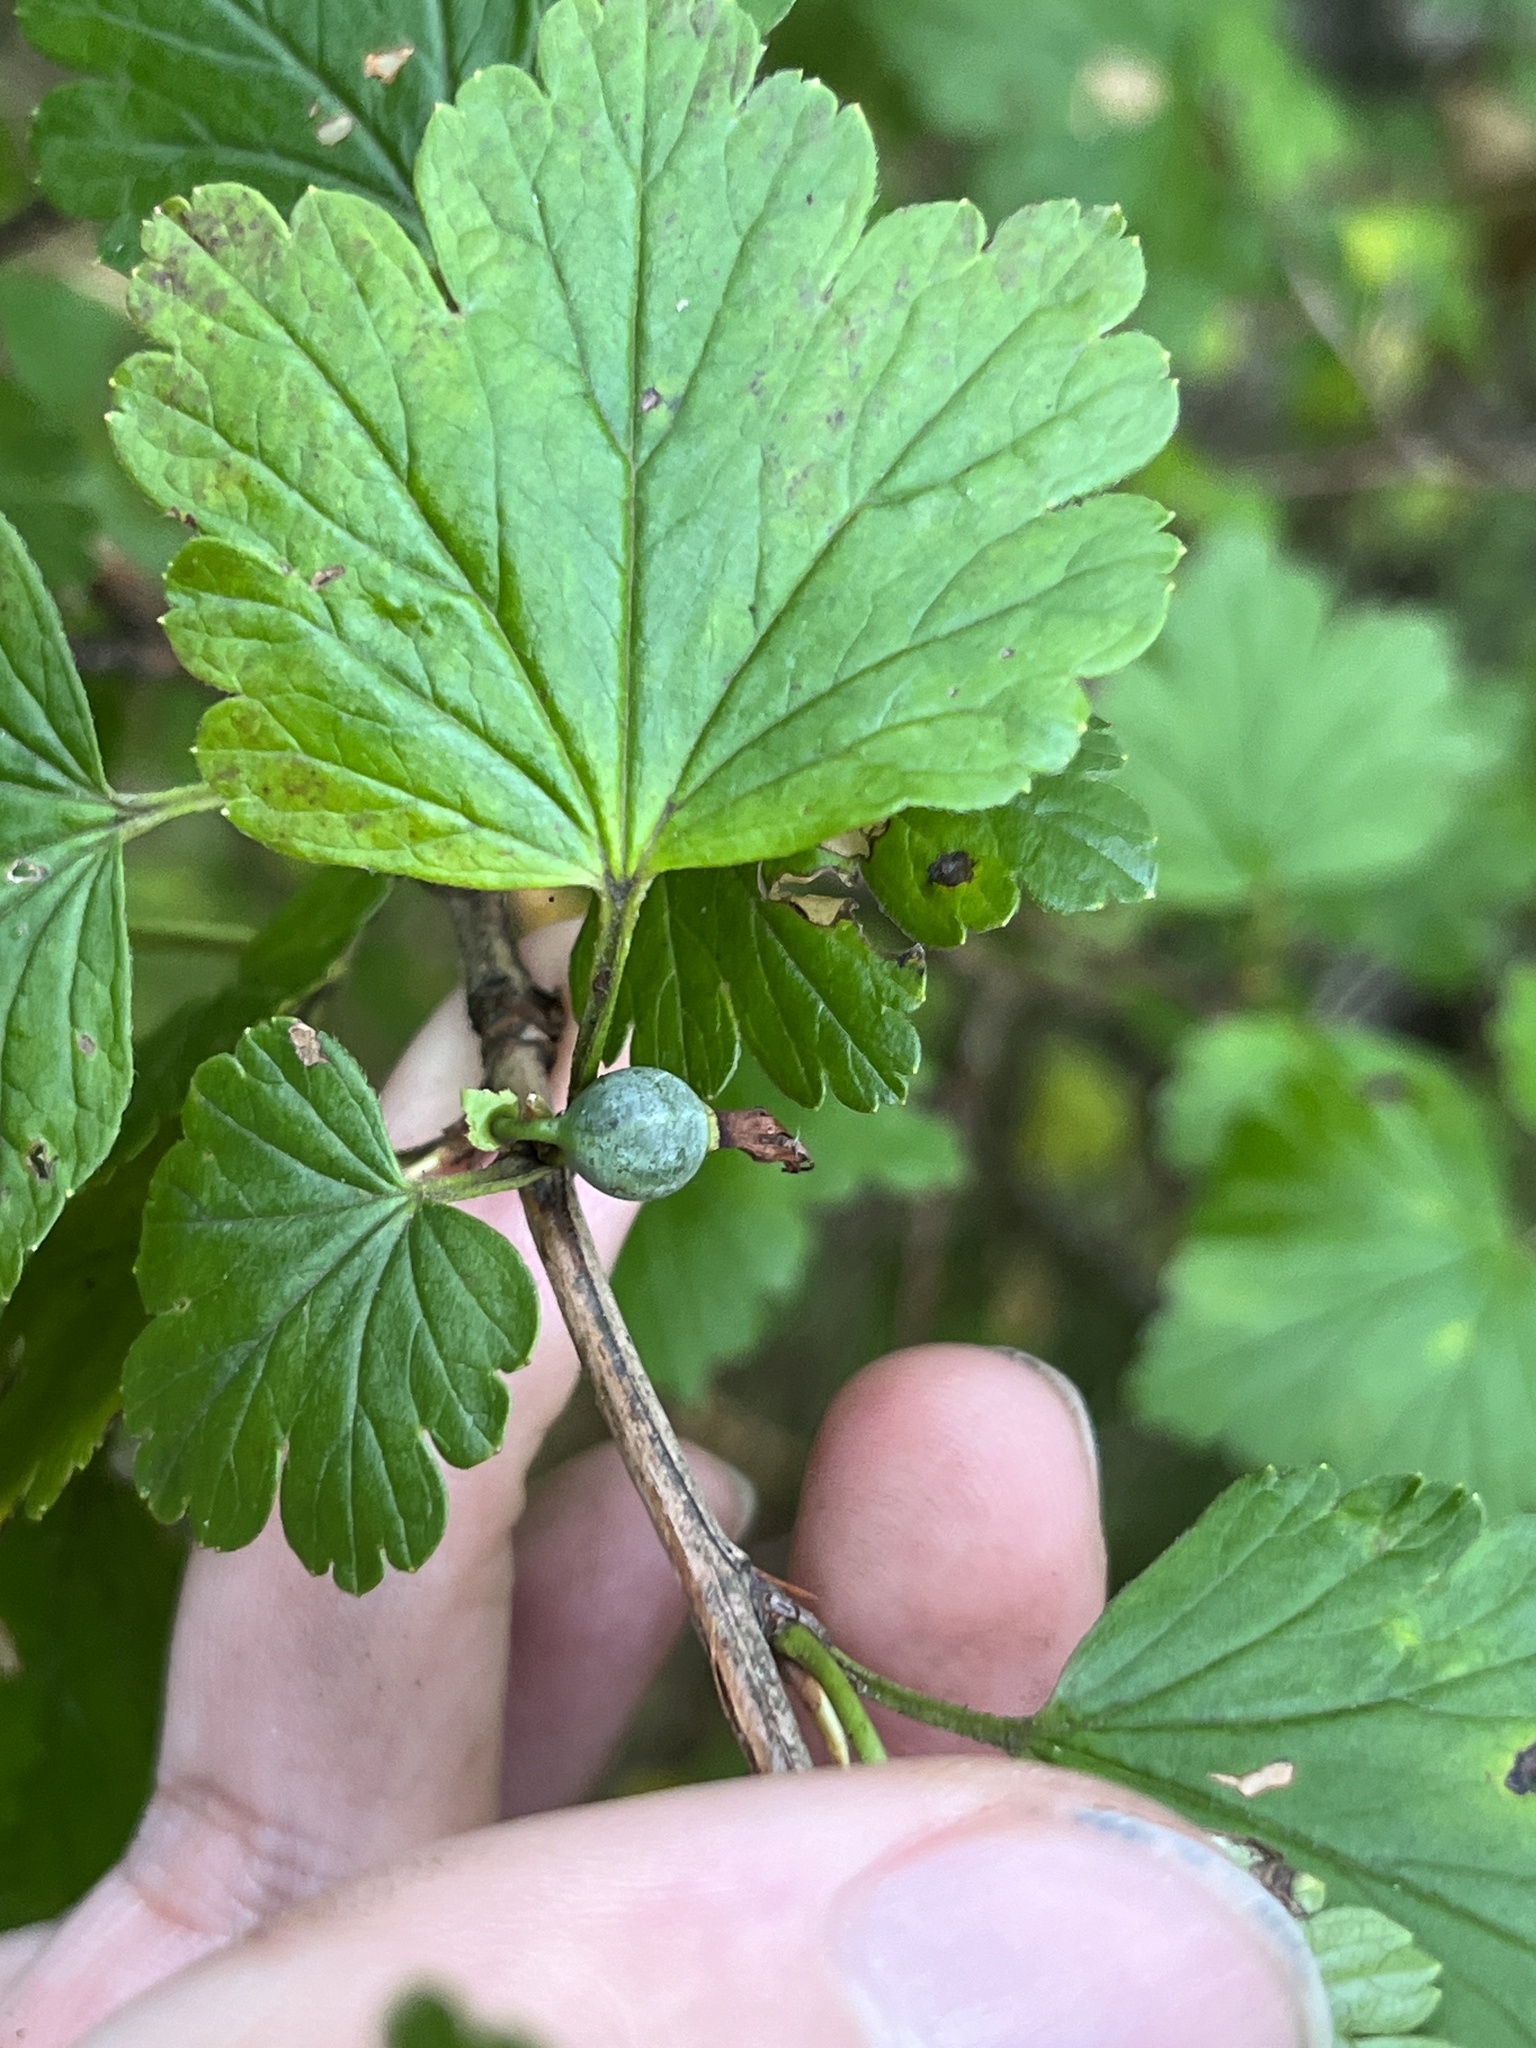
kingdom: Plantae
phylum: Tracheophyta
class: Magnoliopsida
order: Saxifragales
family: Grossulariaceae
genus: Ribes
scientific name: Ribes rotundifolium
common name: Appalachian gooseberry
